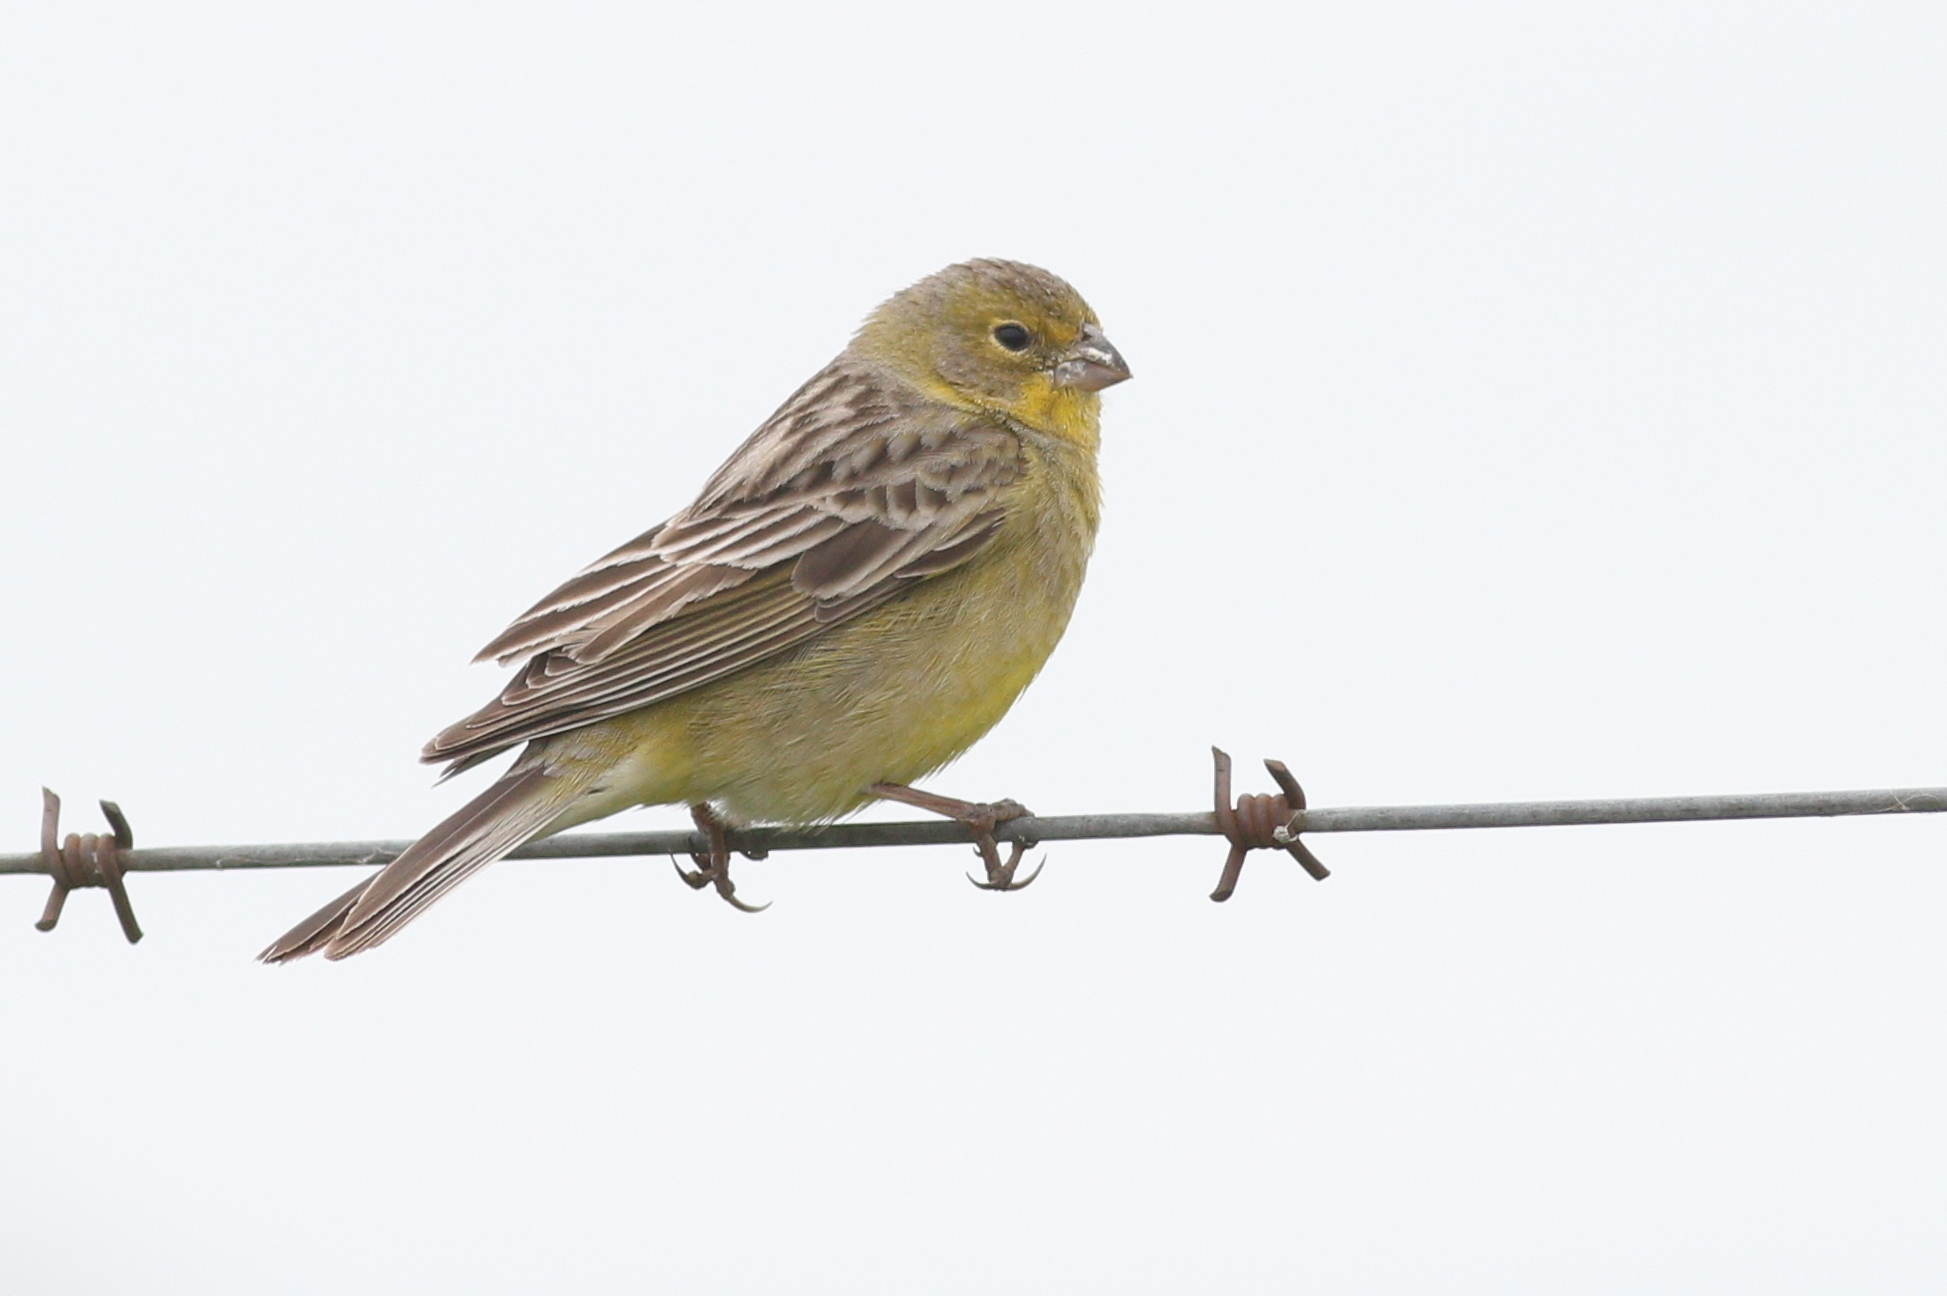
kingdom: Animalia
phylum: Chordata
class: Aves
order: Passeriformes
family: Thraupidae
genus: Sicalis
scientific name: Sicalis luteola
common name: Grassland yellow-finch
